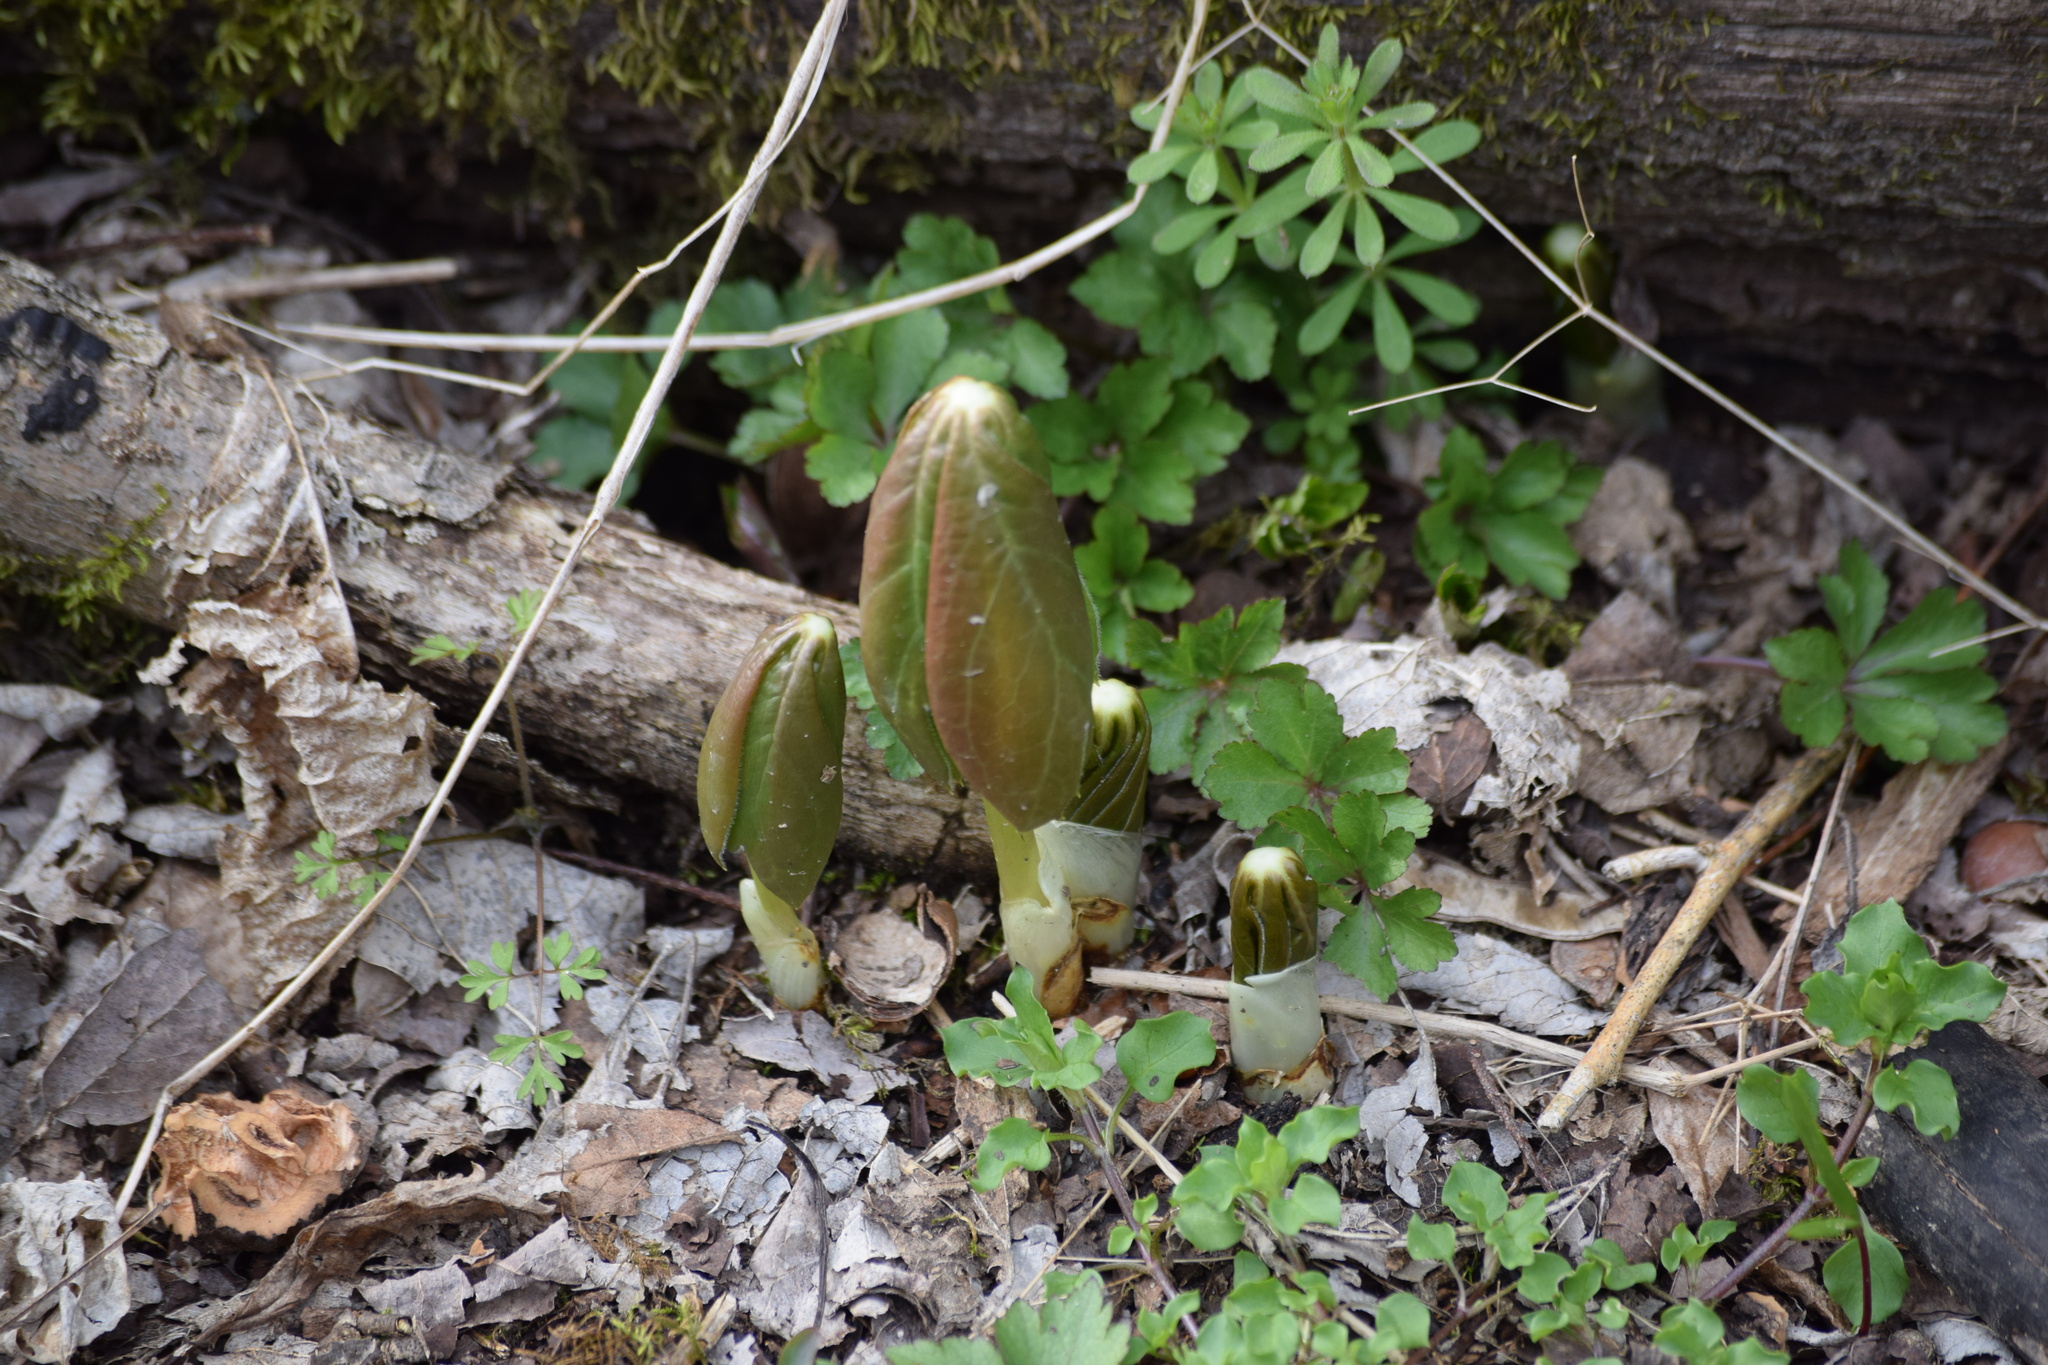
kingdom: Plantae
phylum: Tracheophyta
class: Magnoliopsida
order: Ranunculales
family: Berberidaceae
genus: Podophyllum
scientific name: Podophyllum peltatum
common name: Wild mandrake
